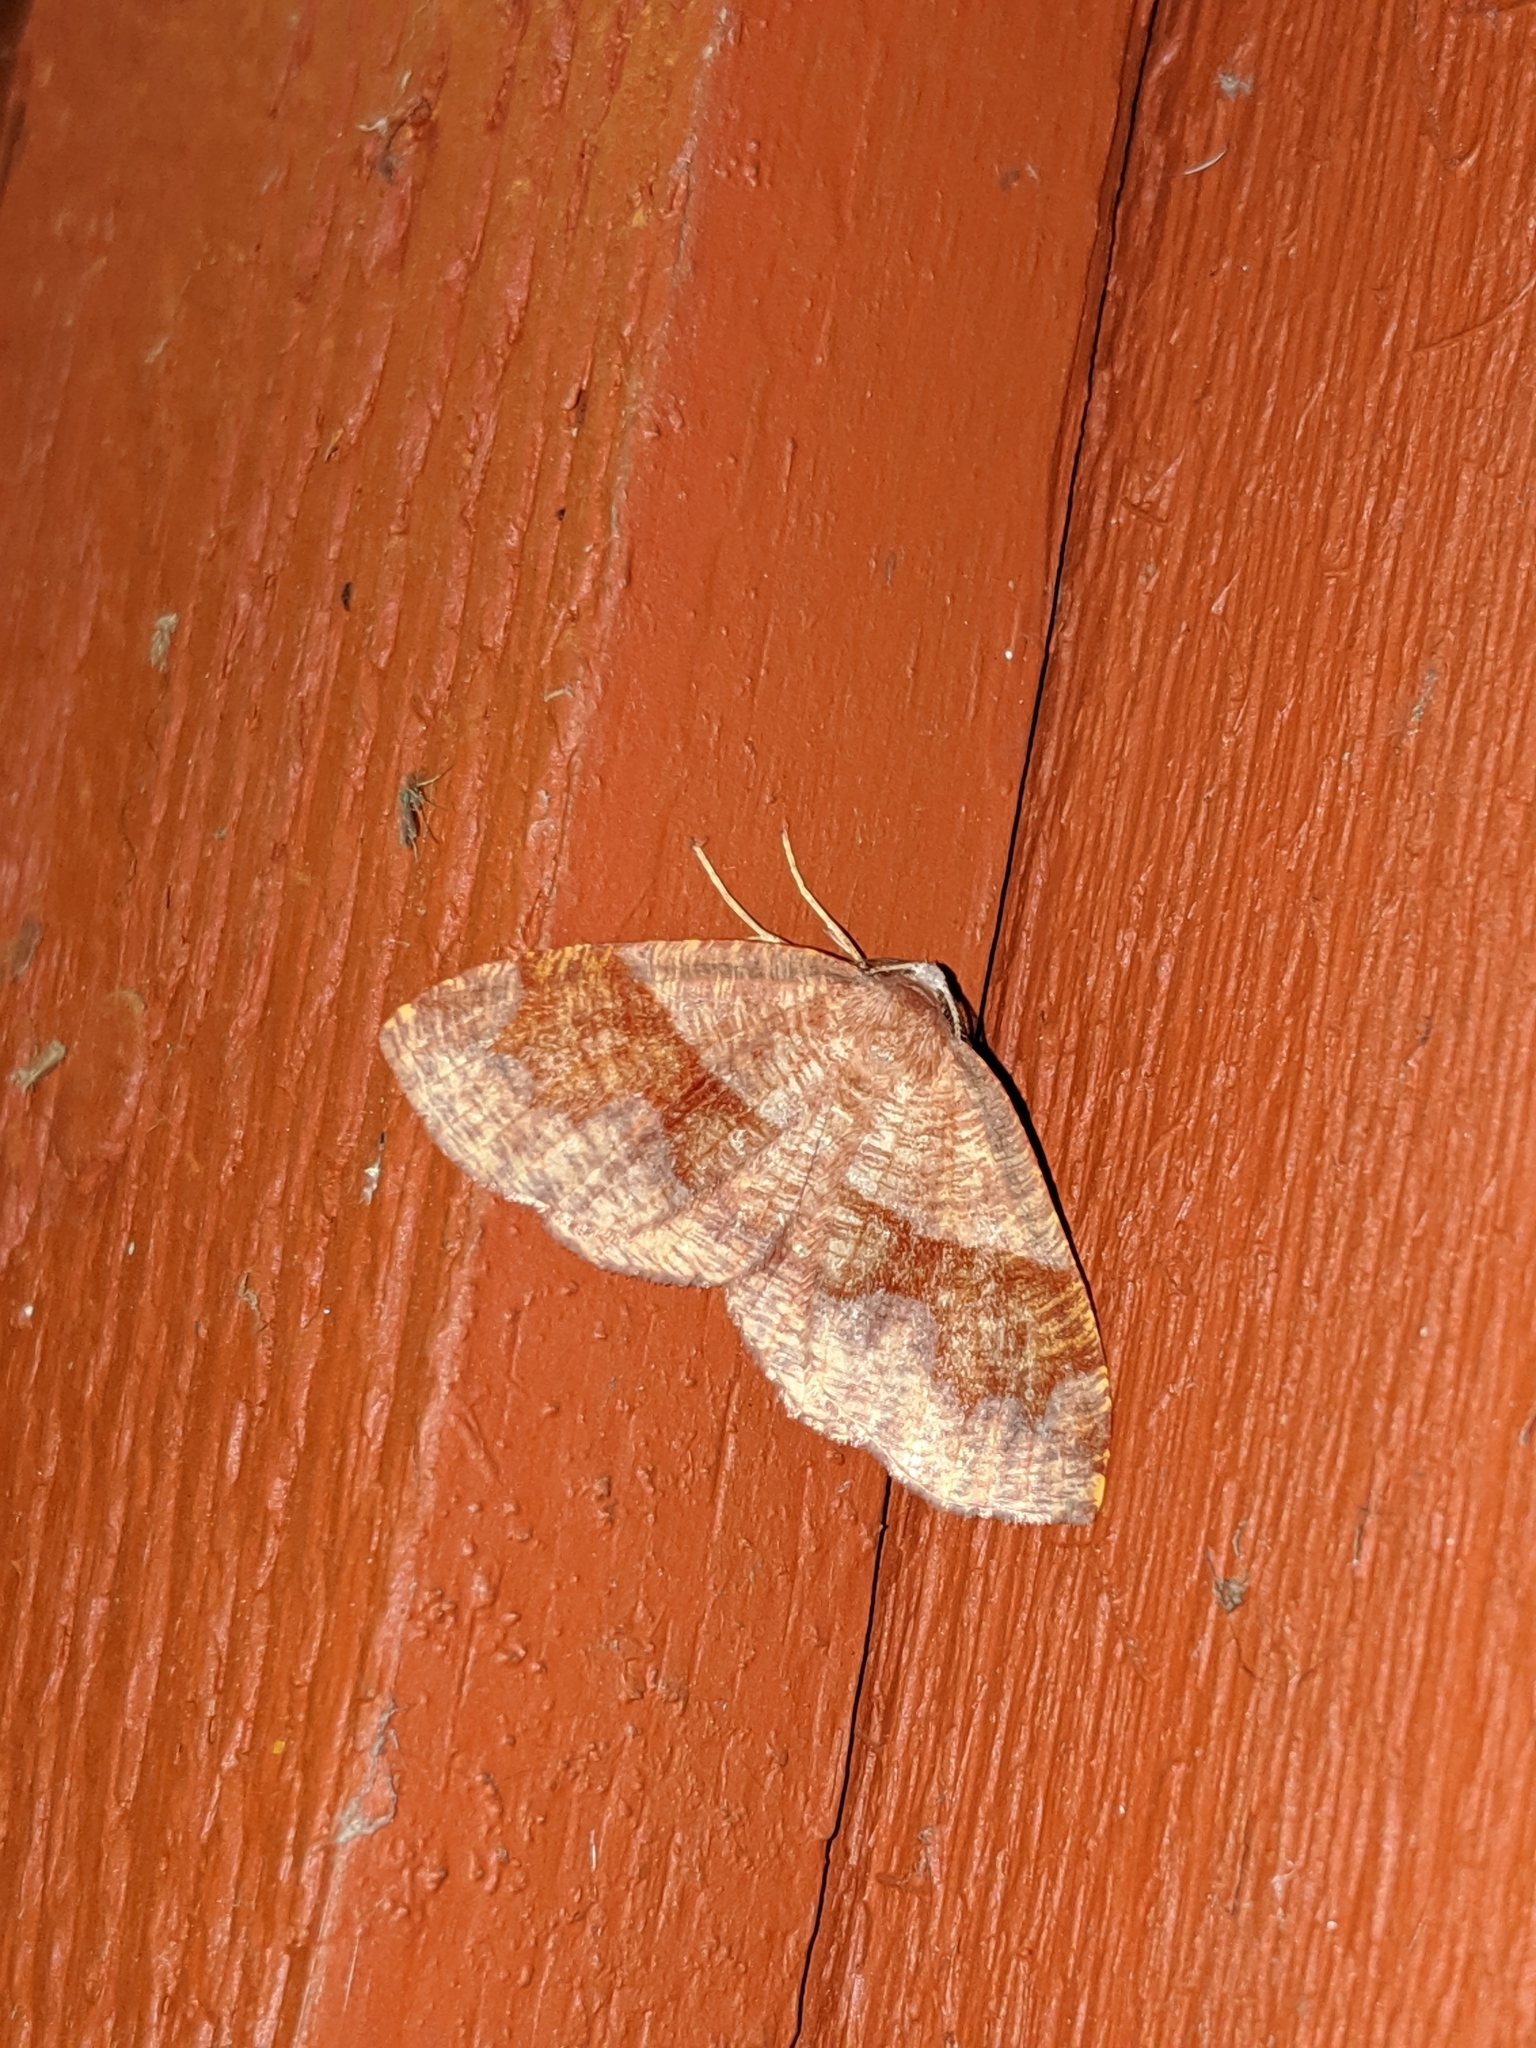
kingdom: Animalia
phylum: Arthropoda
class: Insecta
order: Lepidoptera
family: Geometridae
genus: Plagodis
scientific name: Plagodis pulveraria
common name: Barred umber
